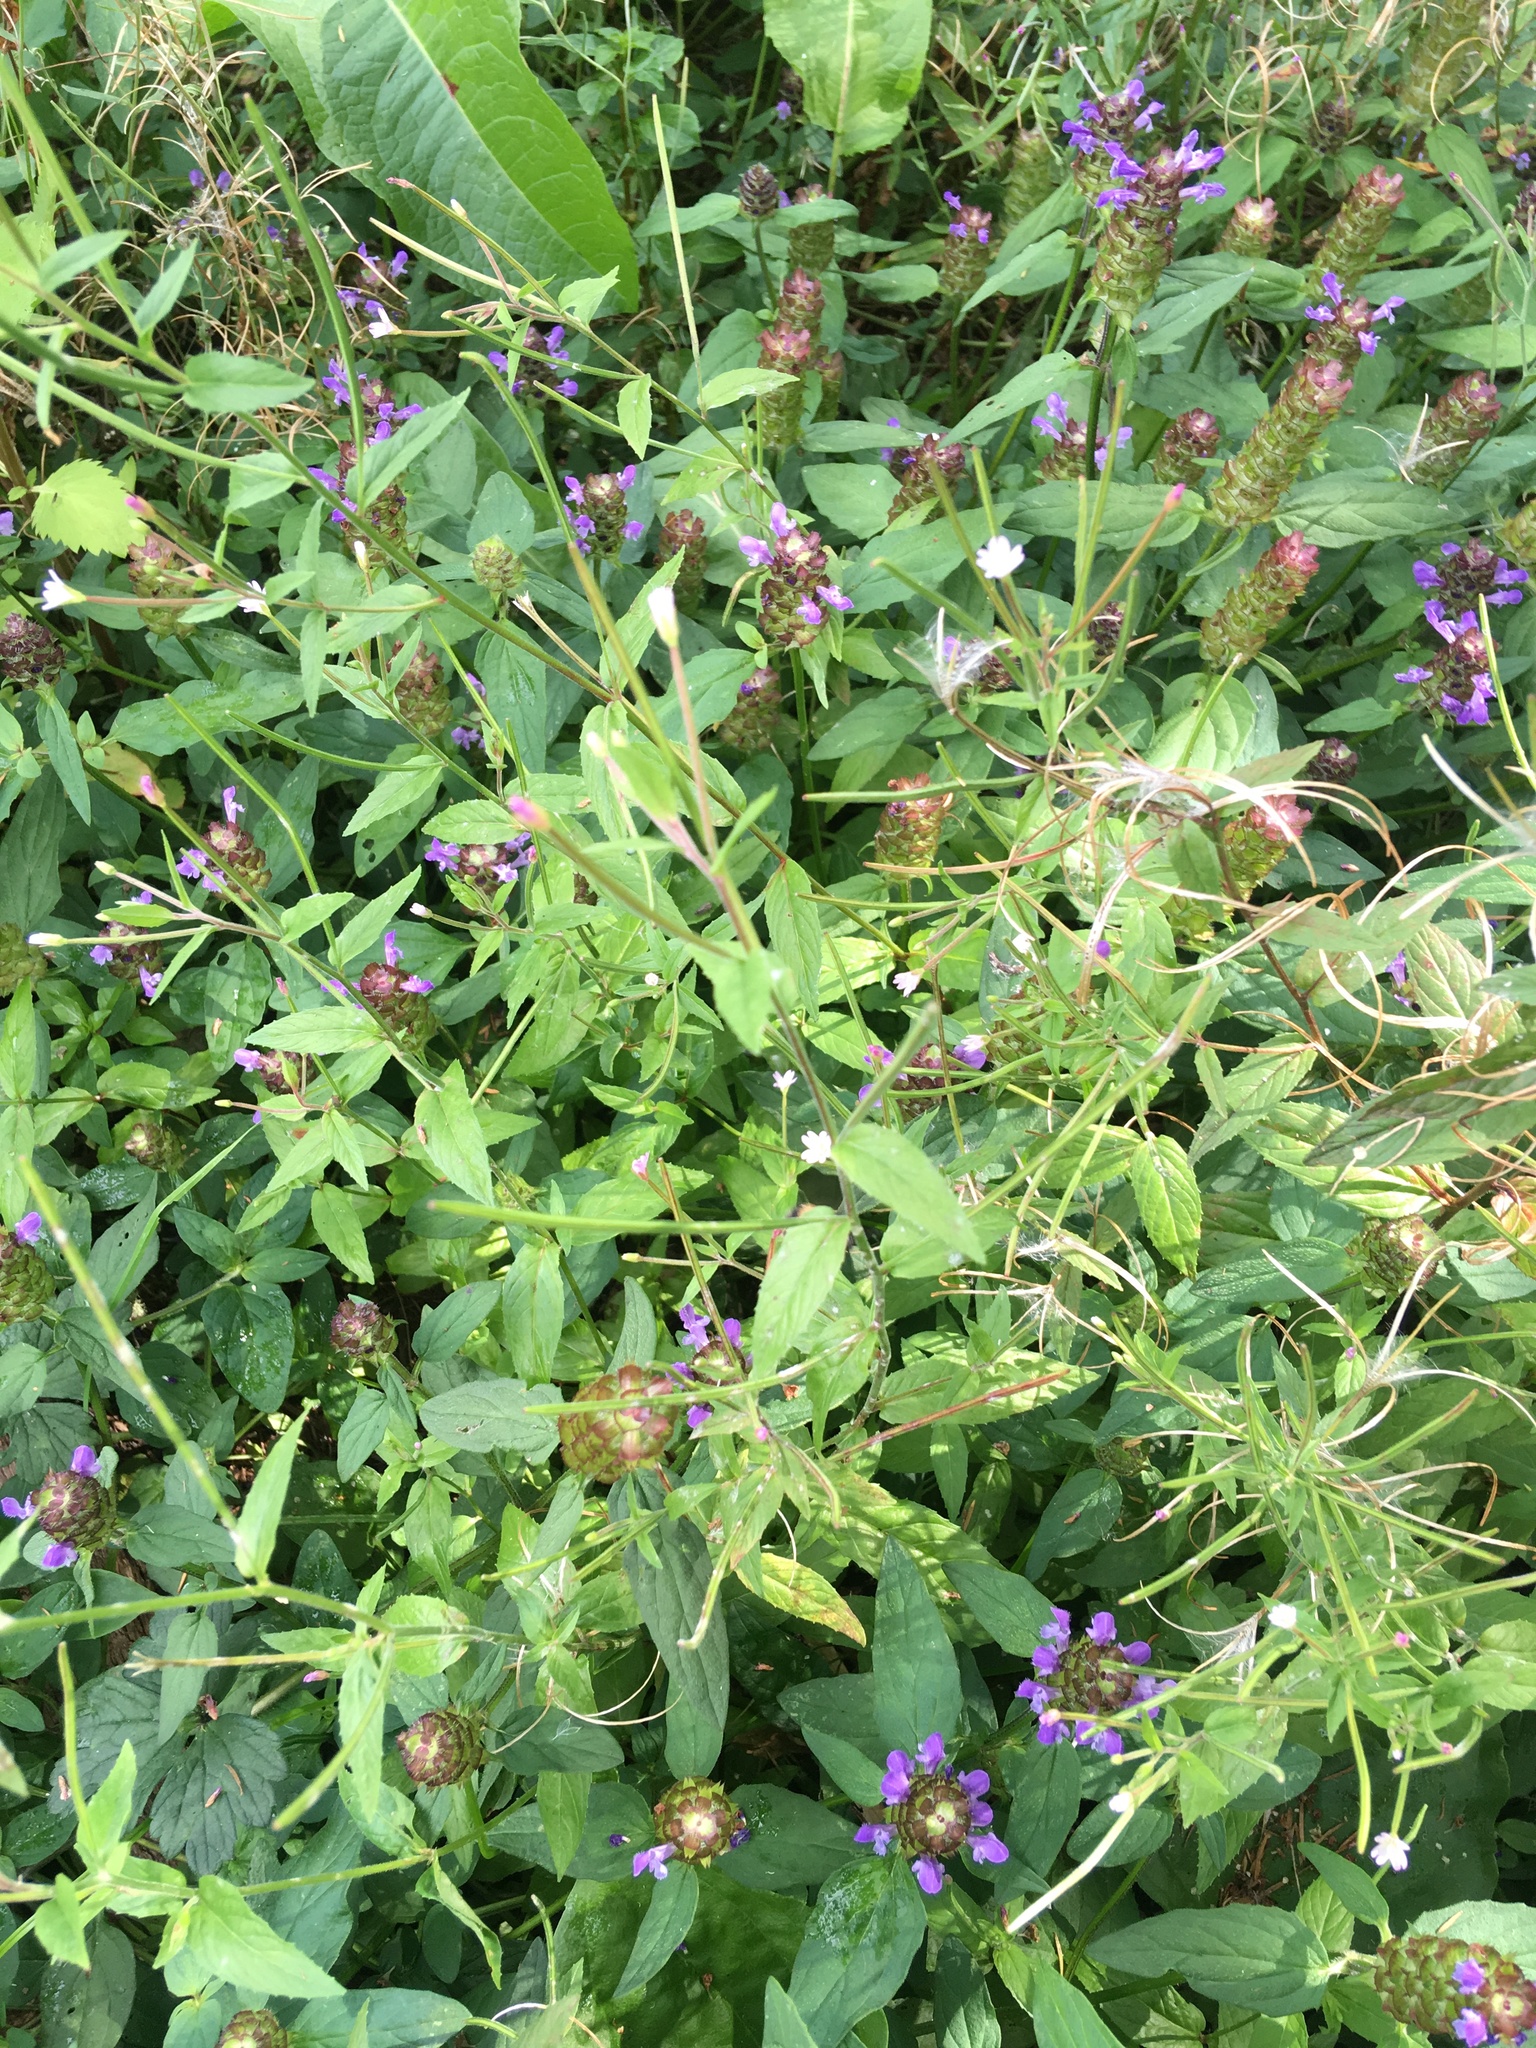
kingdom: Plantae
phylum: Tracheophyta
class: Magnoliopsida
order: Myrtales
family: Onagraceae
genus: Epilobium
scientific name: Epilobium ciliatum
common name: American willowherb
